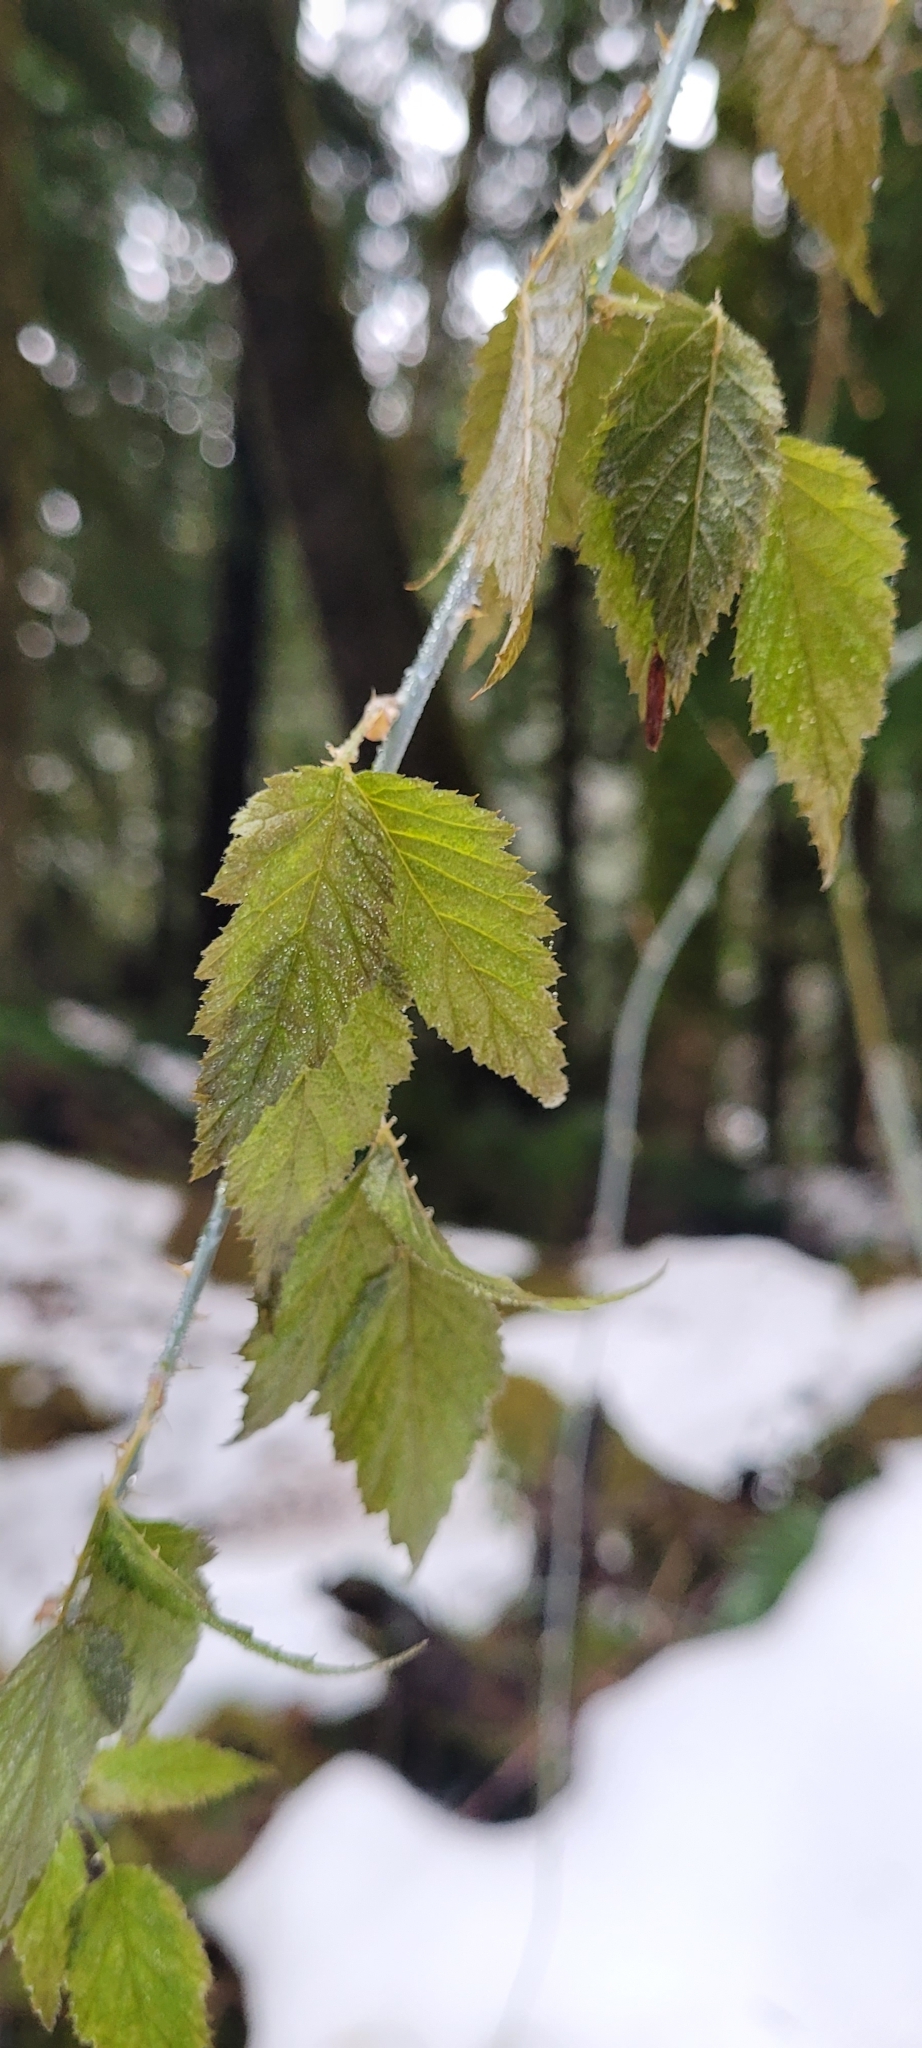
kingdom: Plantae
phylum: Tracheophyta
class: Magnoliopsida
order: Rosales
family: Rosaceae
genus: Rubus
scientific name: Rubus leucodermis
